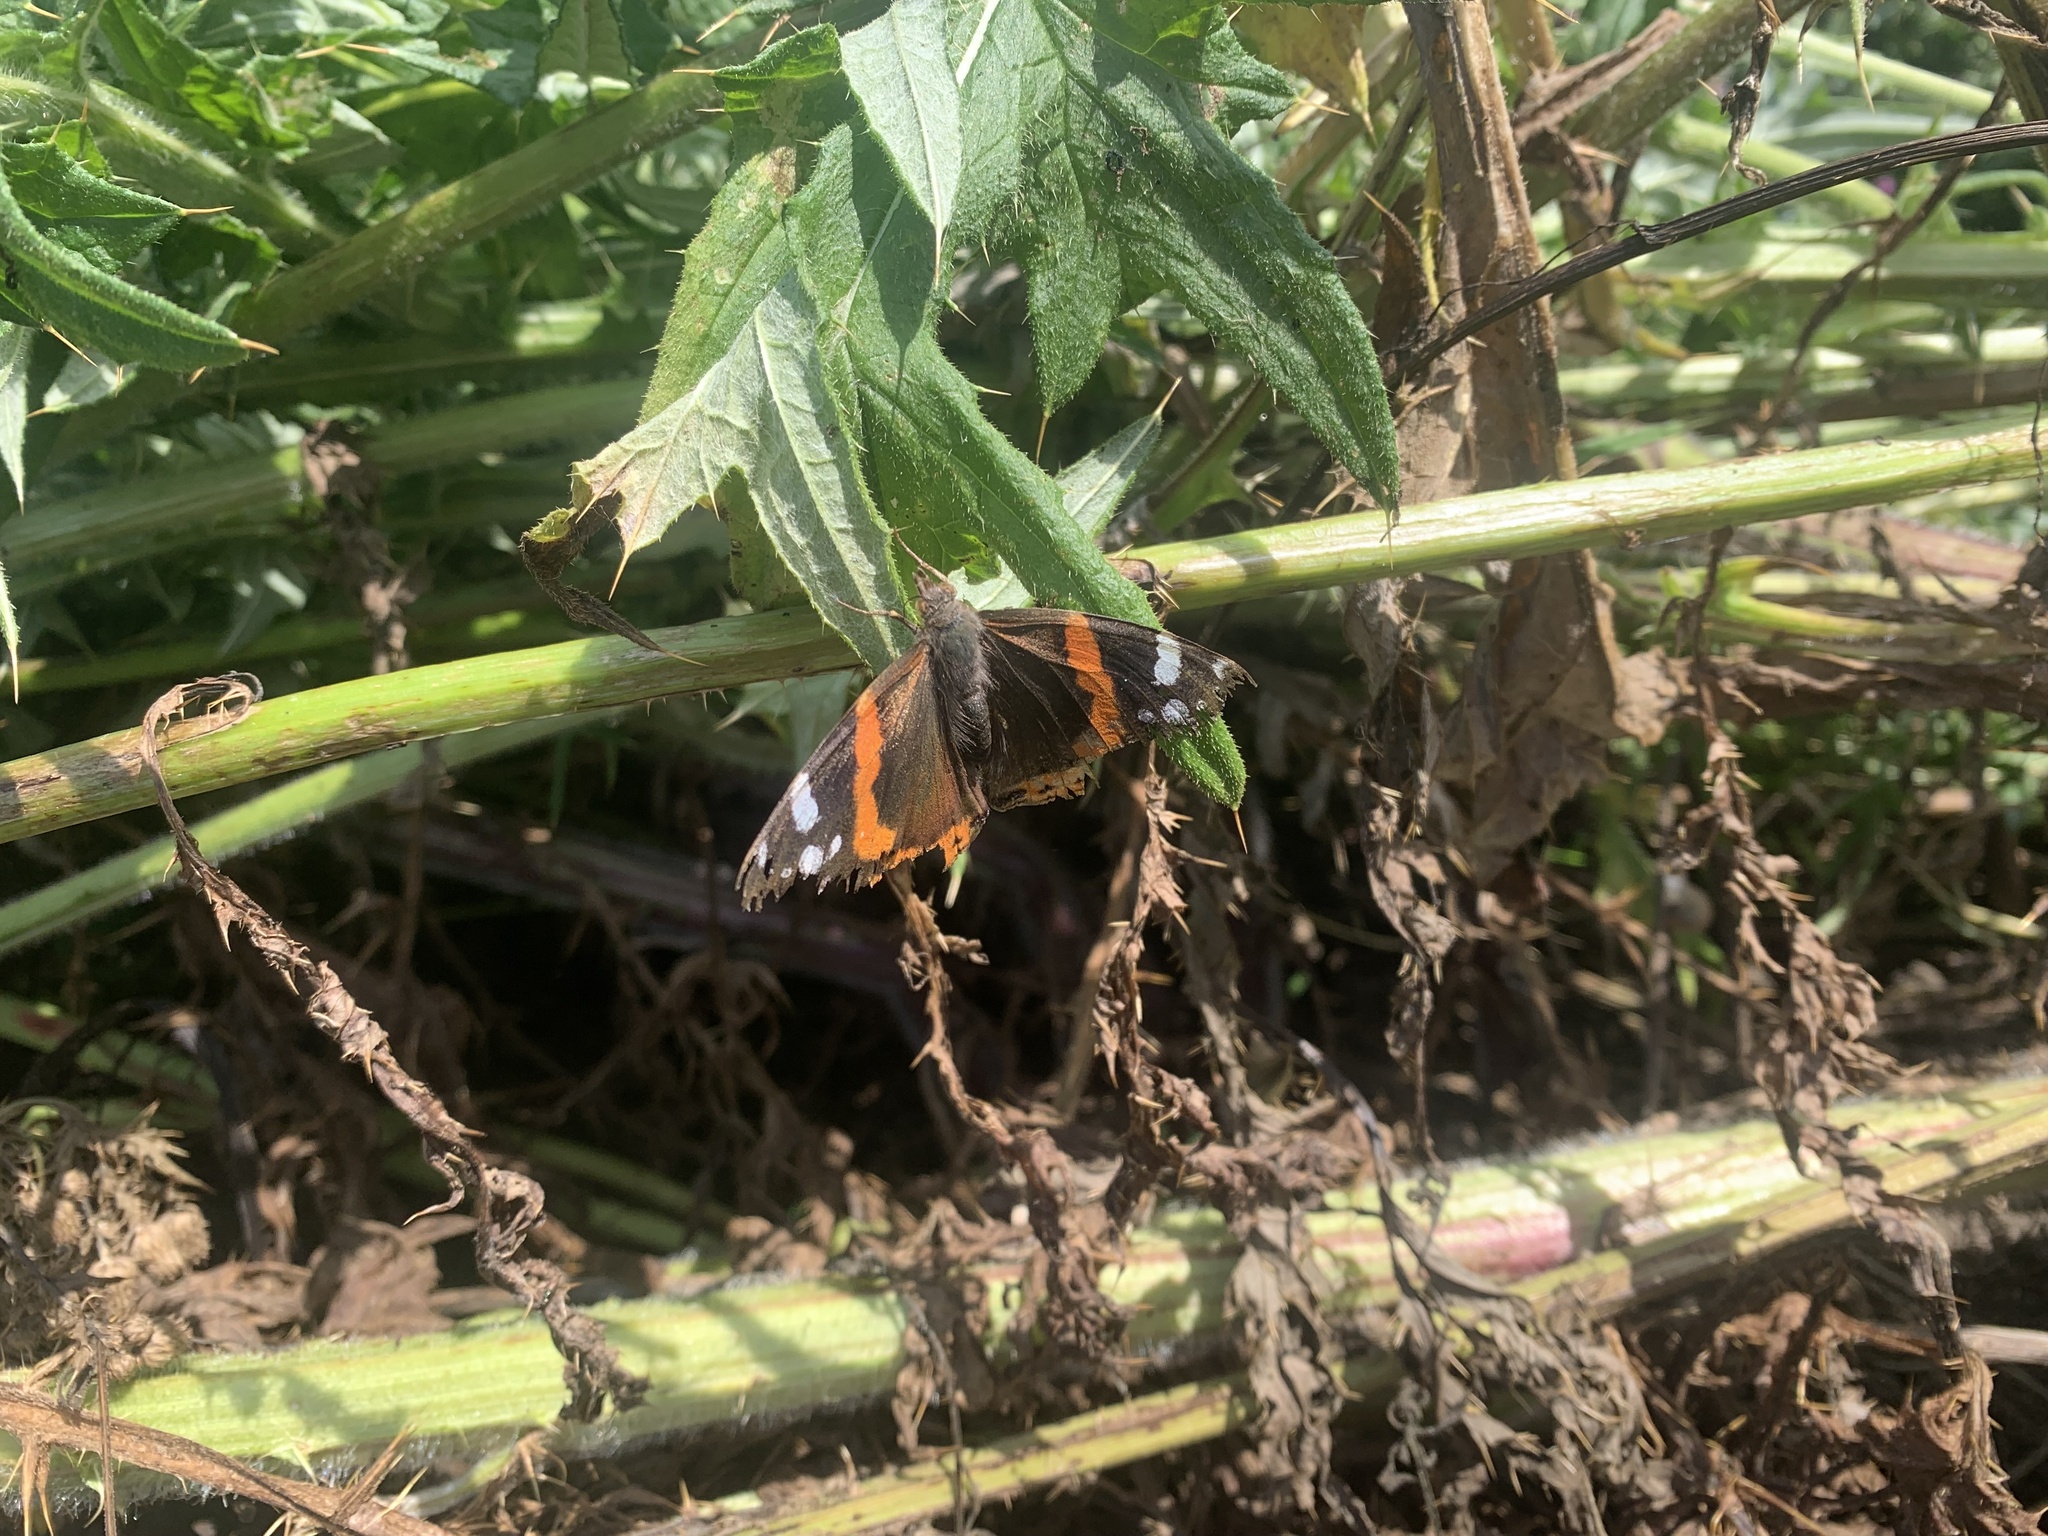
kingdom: Animalia
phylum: Arthropoda
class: Insecta
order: Lepidoptera
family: Nymphalidae
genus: Vanessa
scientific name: Vanessa atalanta
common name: Red admiral
